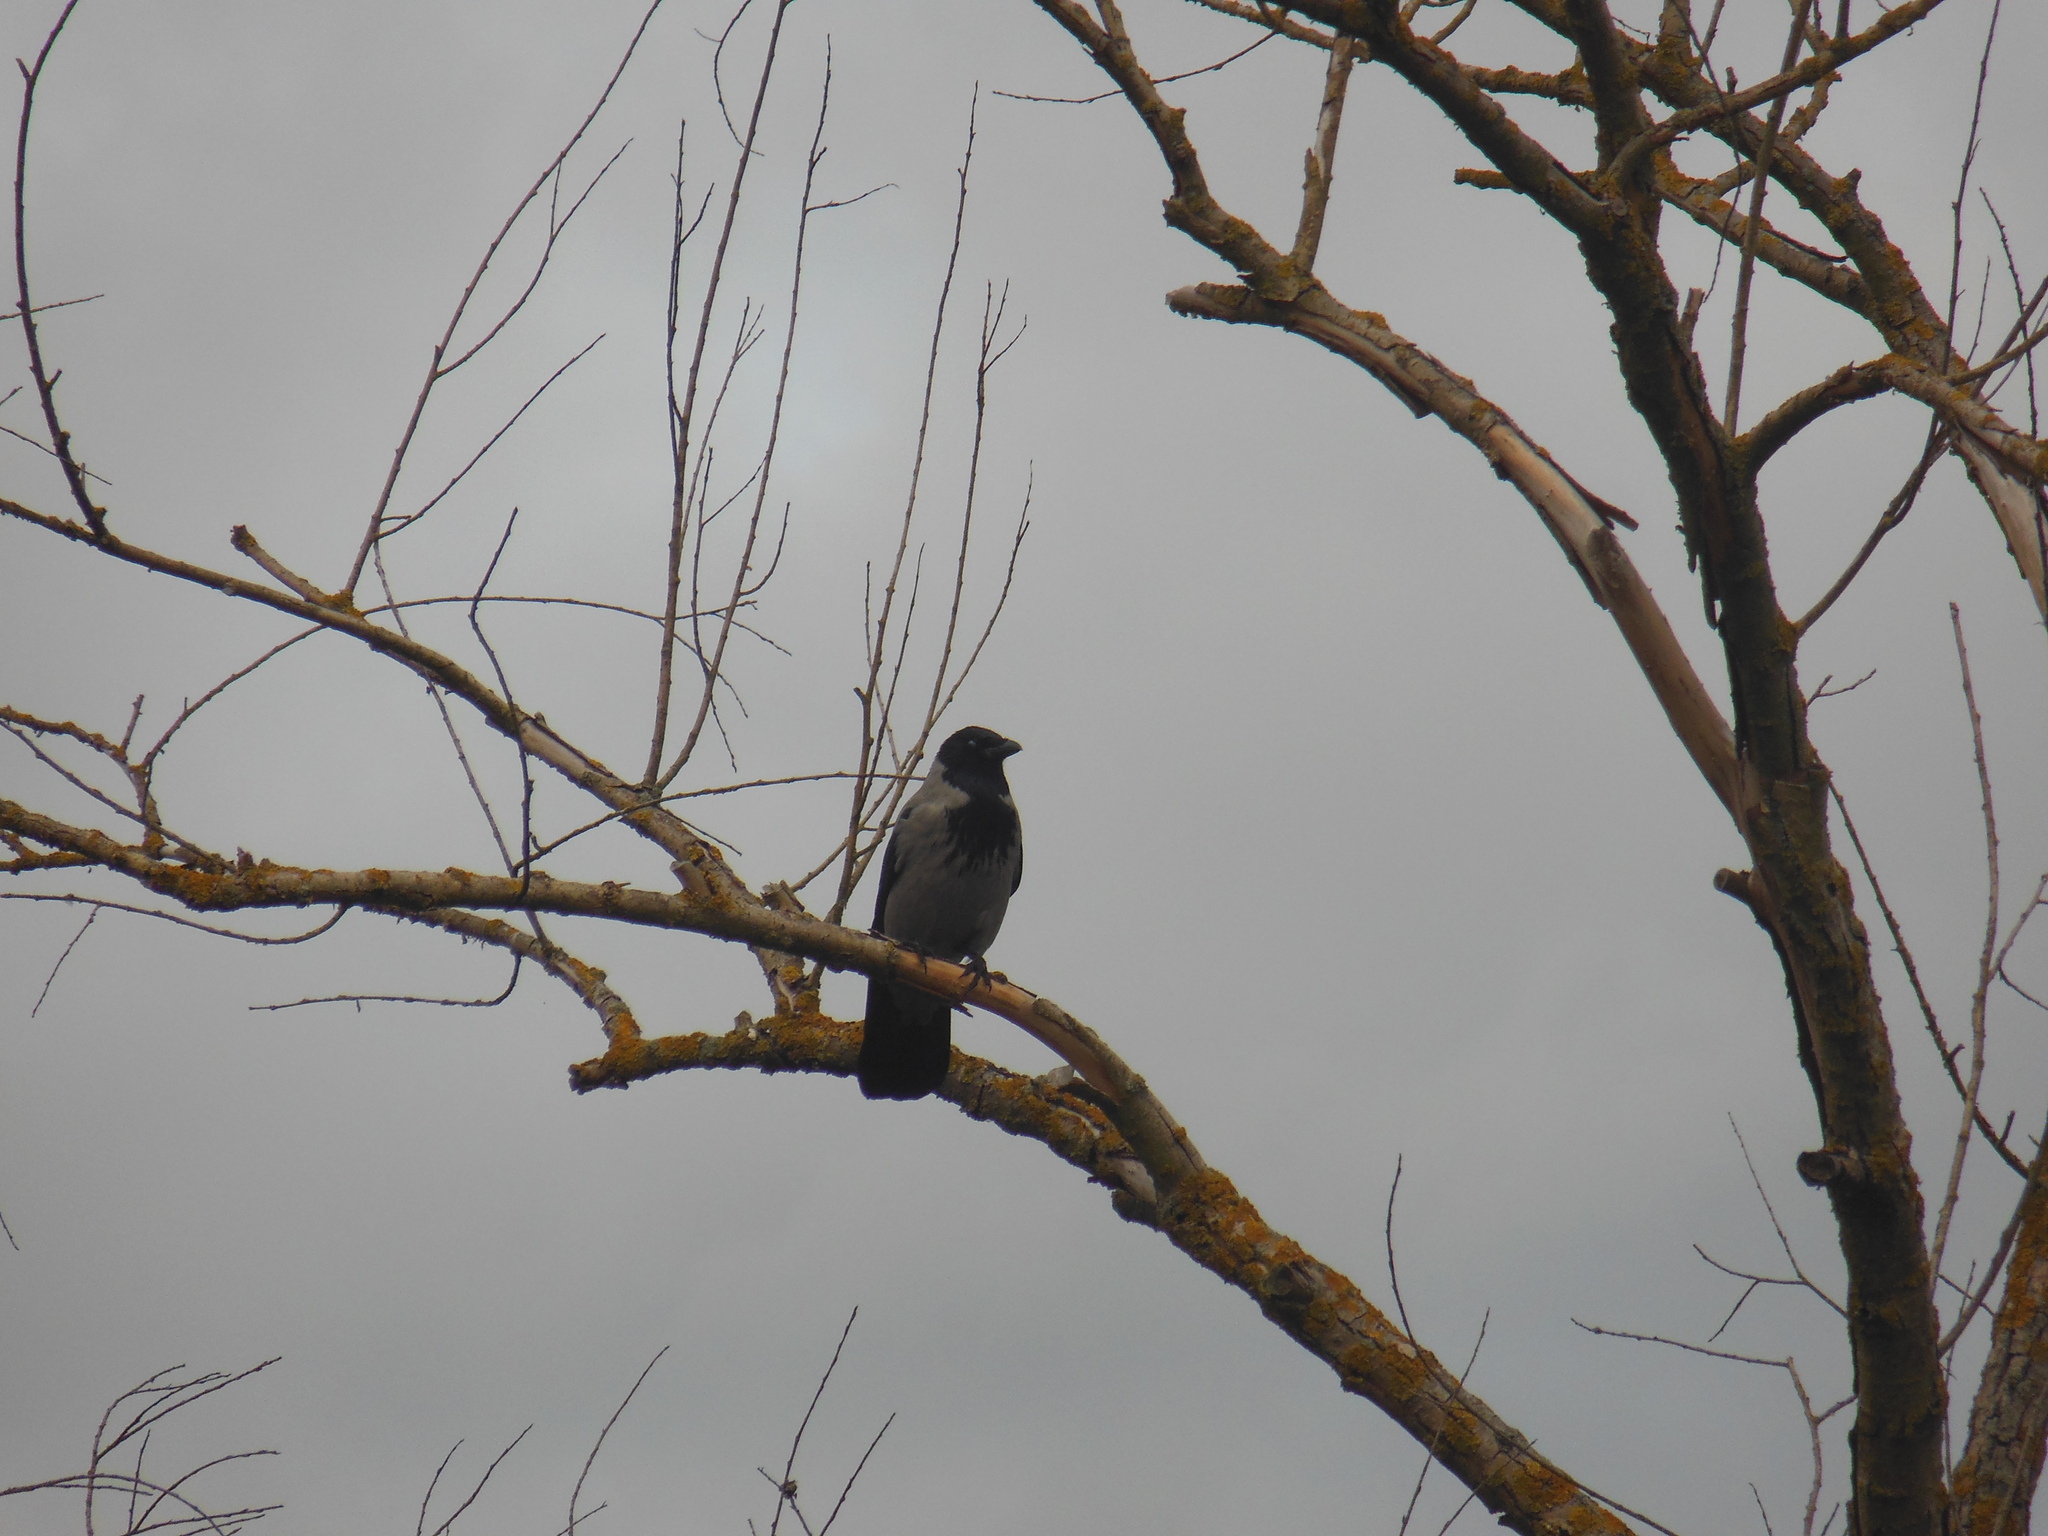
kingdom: Animalia
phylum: Chordata
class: Aves
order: Passeriformes
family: Corvidae
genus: Corvus
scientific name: Corvus cornix
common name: Hooded crow
